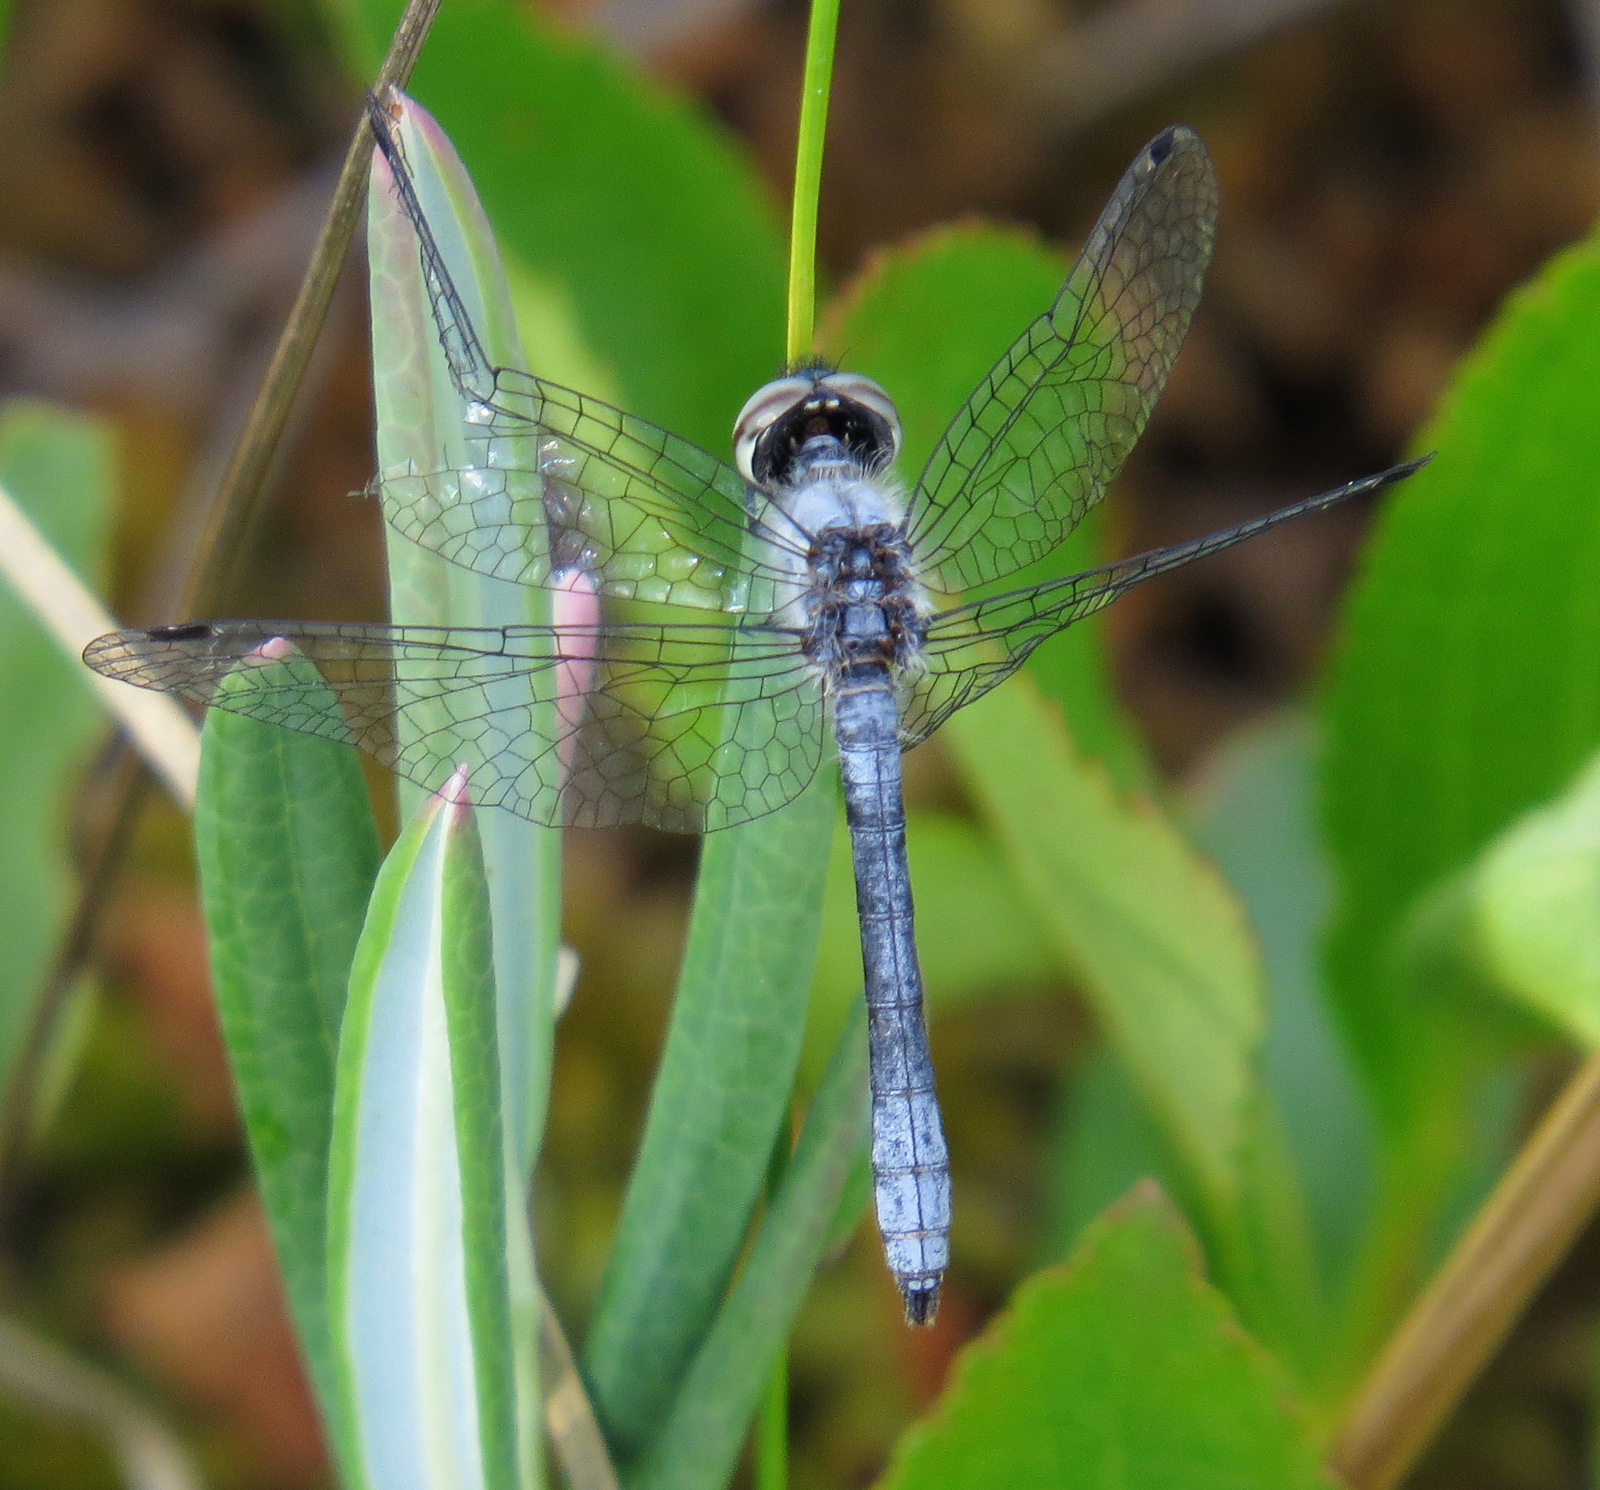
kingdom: Animalia
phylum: Arthropoda
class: Insecta
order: Odonata
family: Libellulidae
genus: Nannothemis
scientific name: Nannothemis bella
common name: Elfin skimmer
